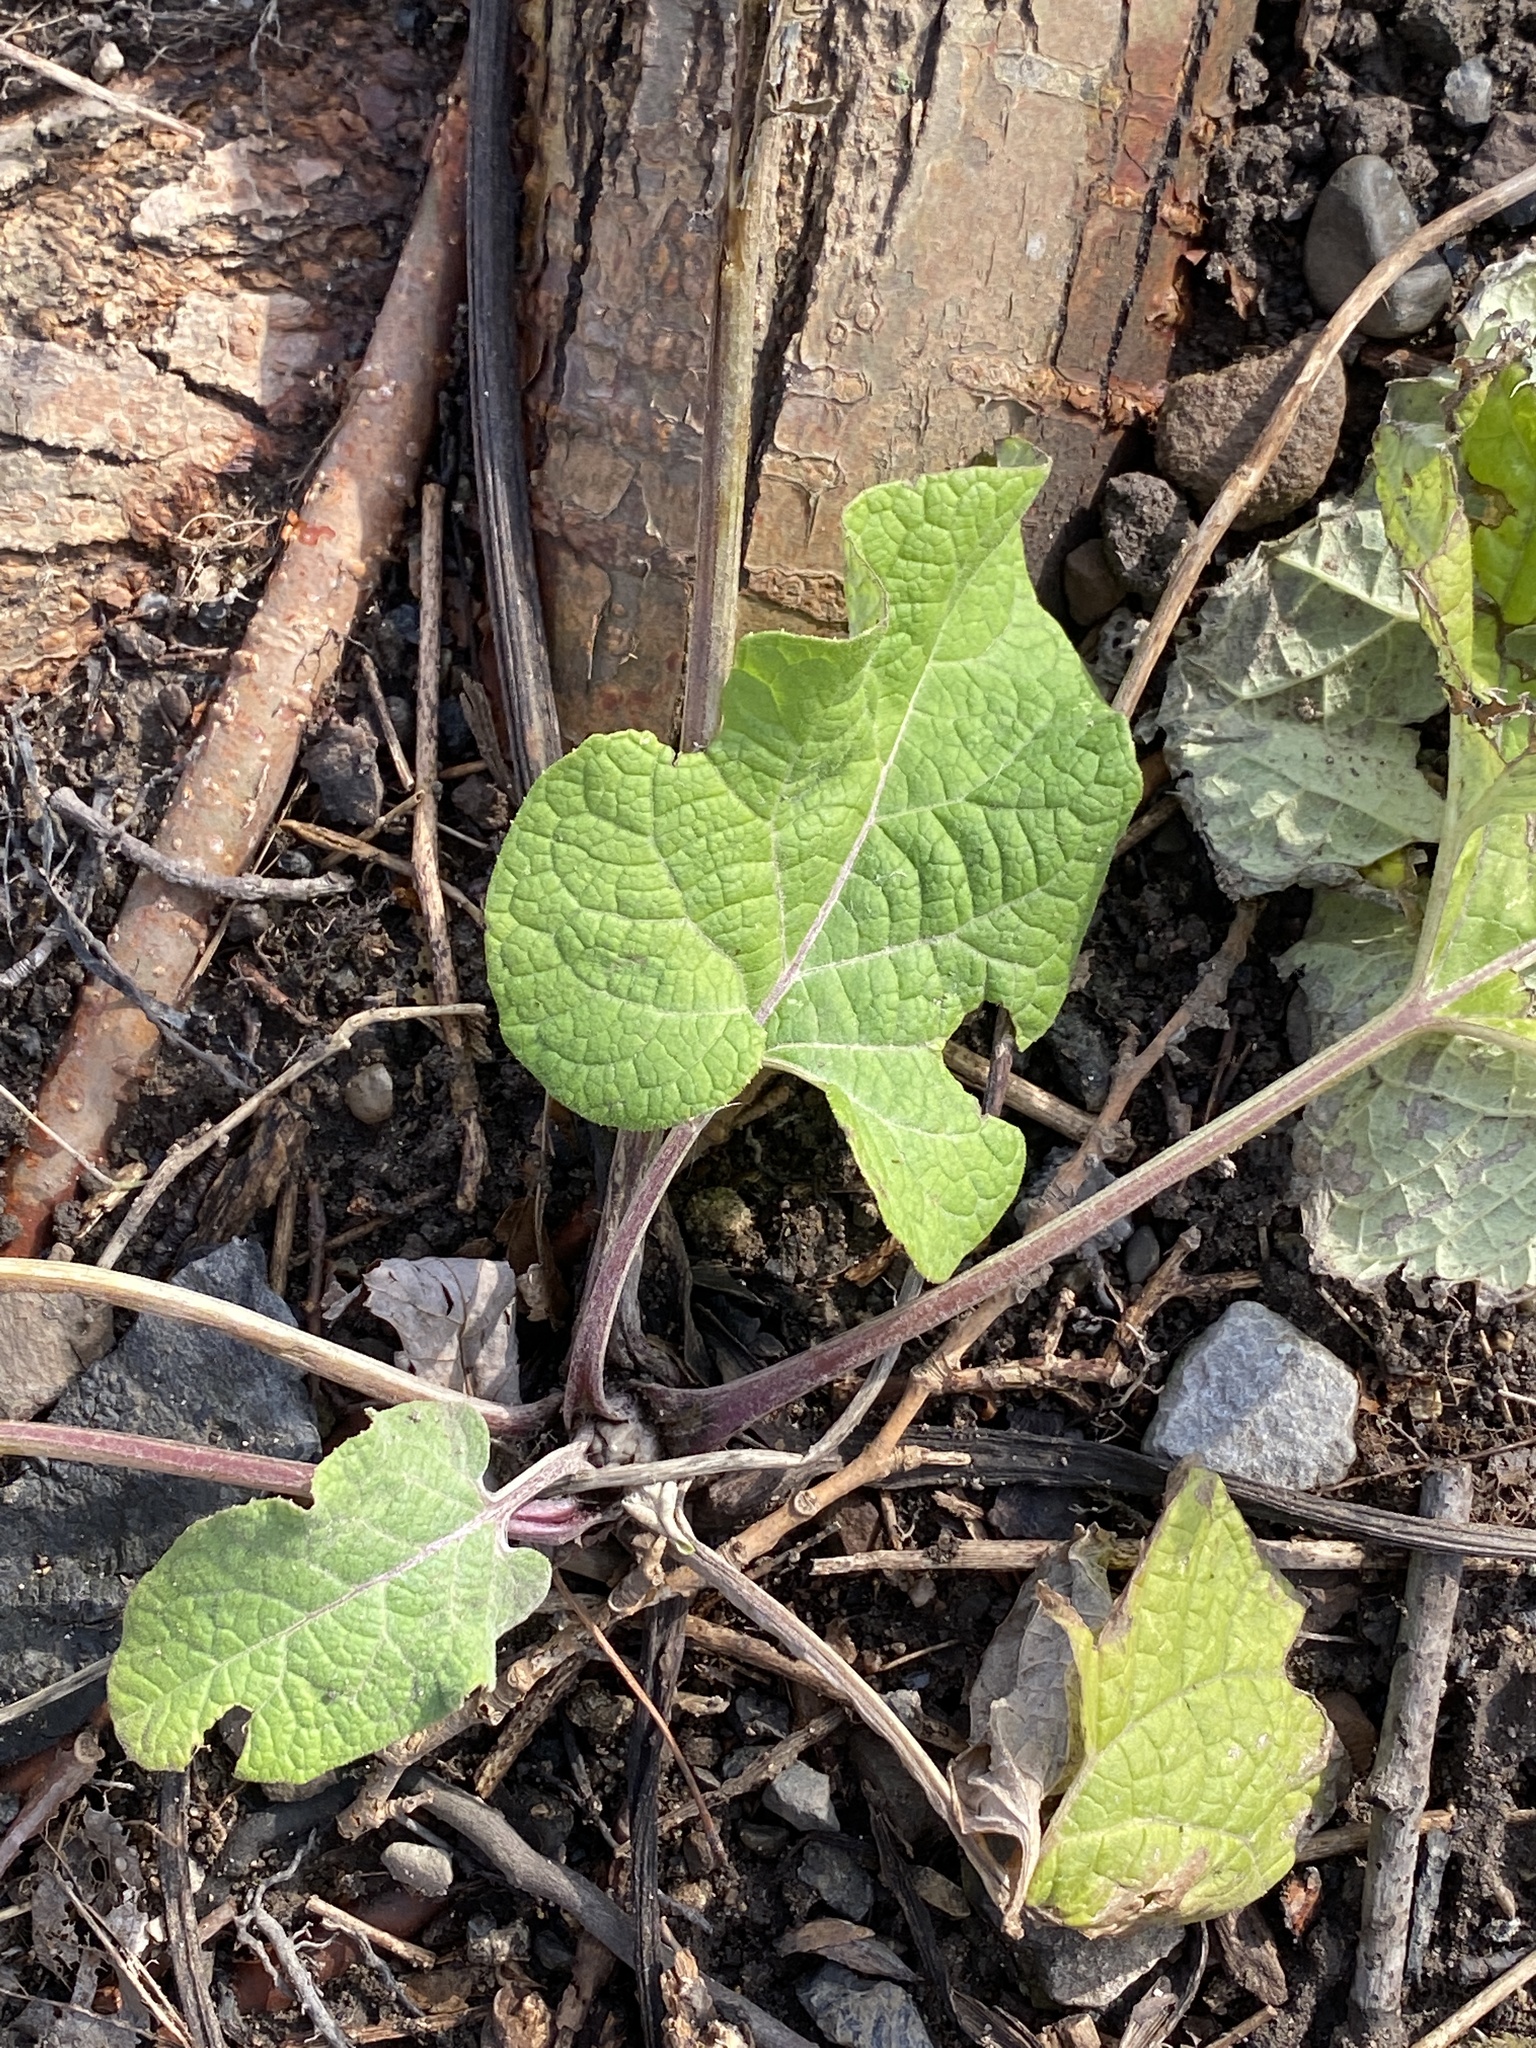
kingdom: Plantae
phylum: Tracheophyta
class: Magnoliopsida
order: Asterales
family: Asteraceae
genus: Arctium
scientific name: Arctium
